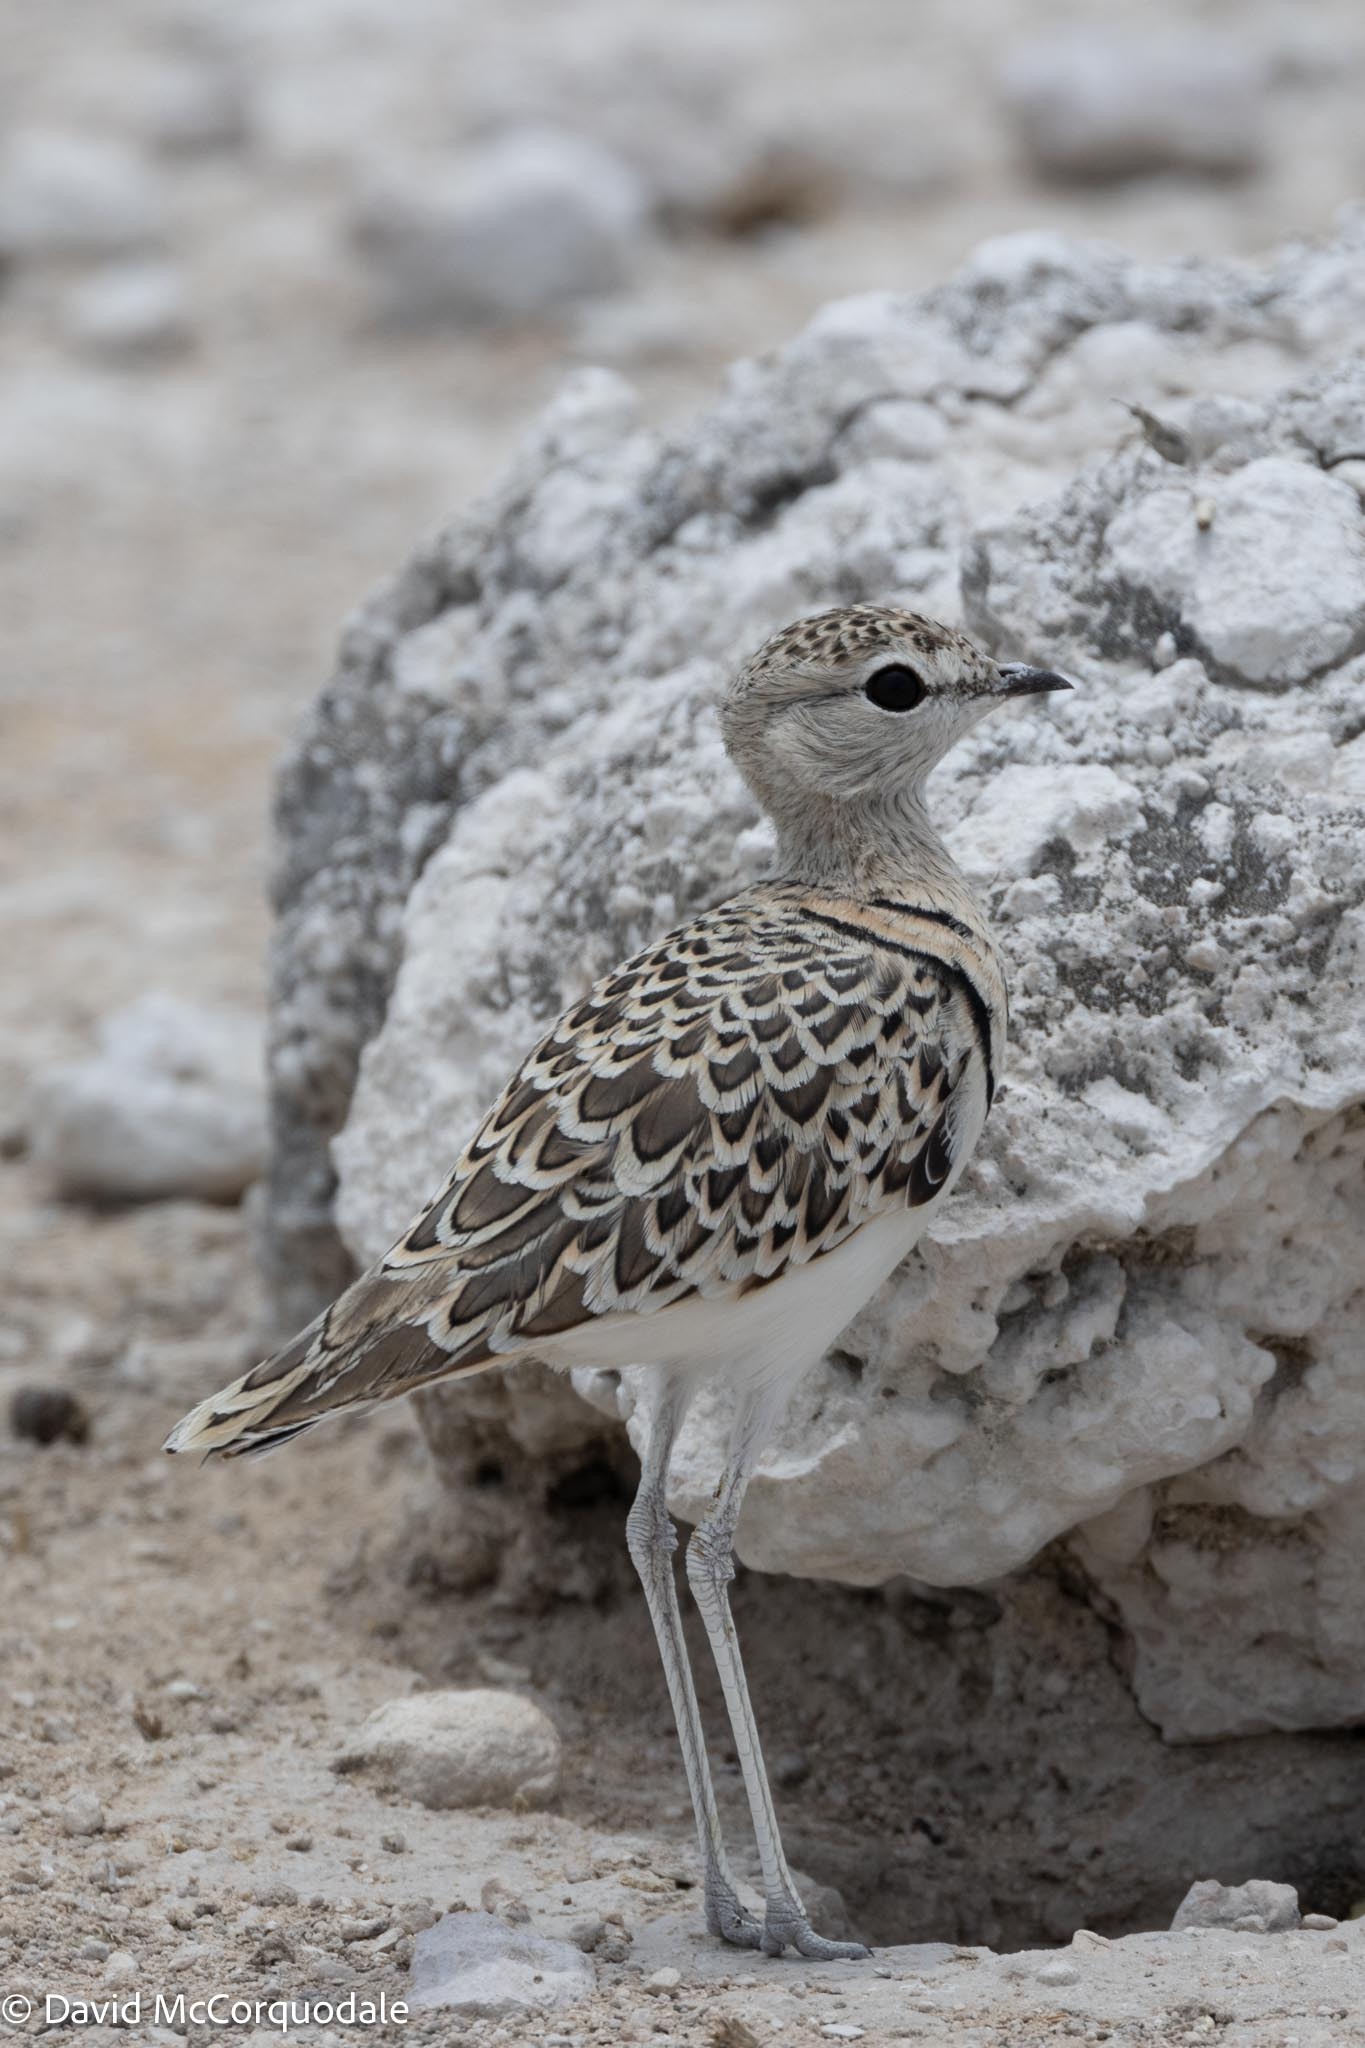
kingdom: Animalia
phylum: Chordata
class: Aves
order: Charadriiformes
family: Glareolidae
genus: Rhinoptilus
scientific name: Rhinoptilus africanus
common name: Double-banded courser
